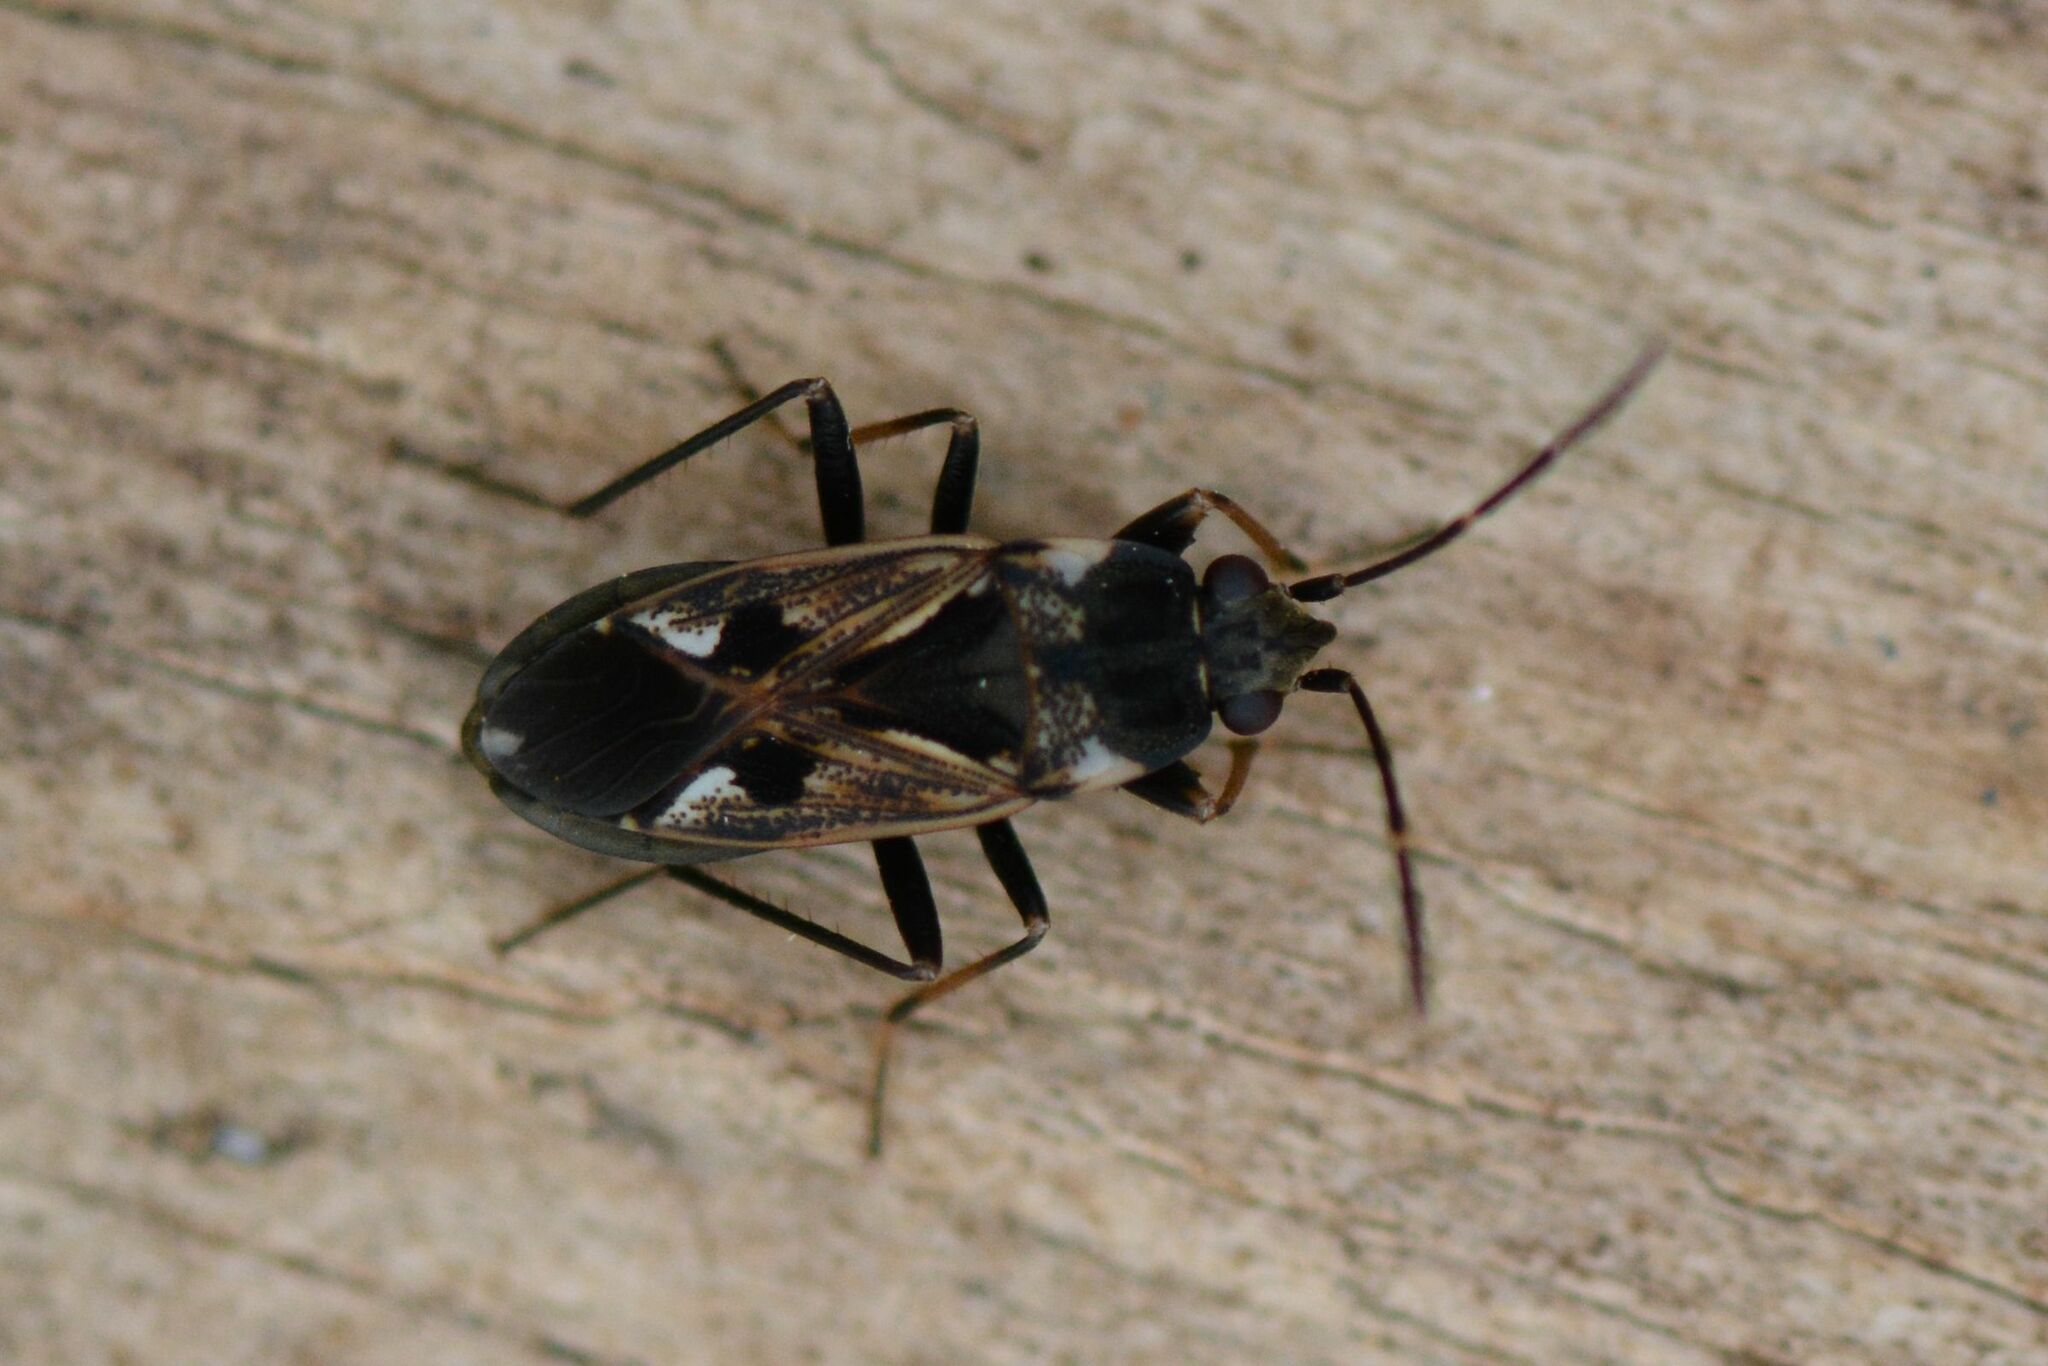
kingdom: Animalia
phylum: Arthropoda
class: Insecta
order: Hemiptera
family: Rhyparochromidae
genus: Rhyparochromus
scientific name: Rhyparochromus vulgaris
